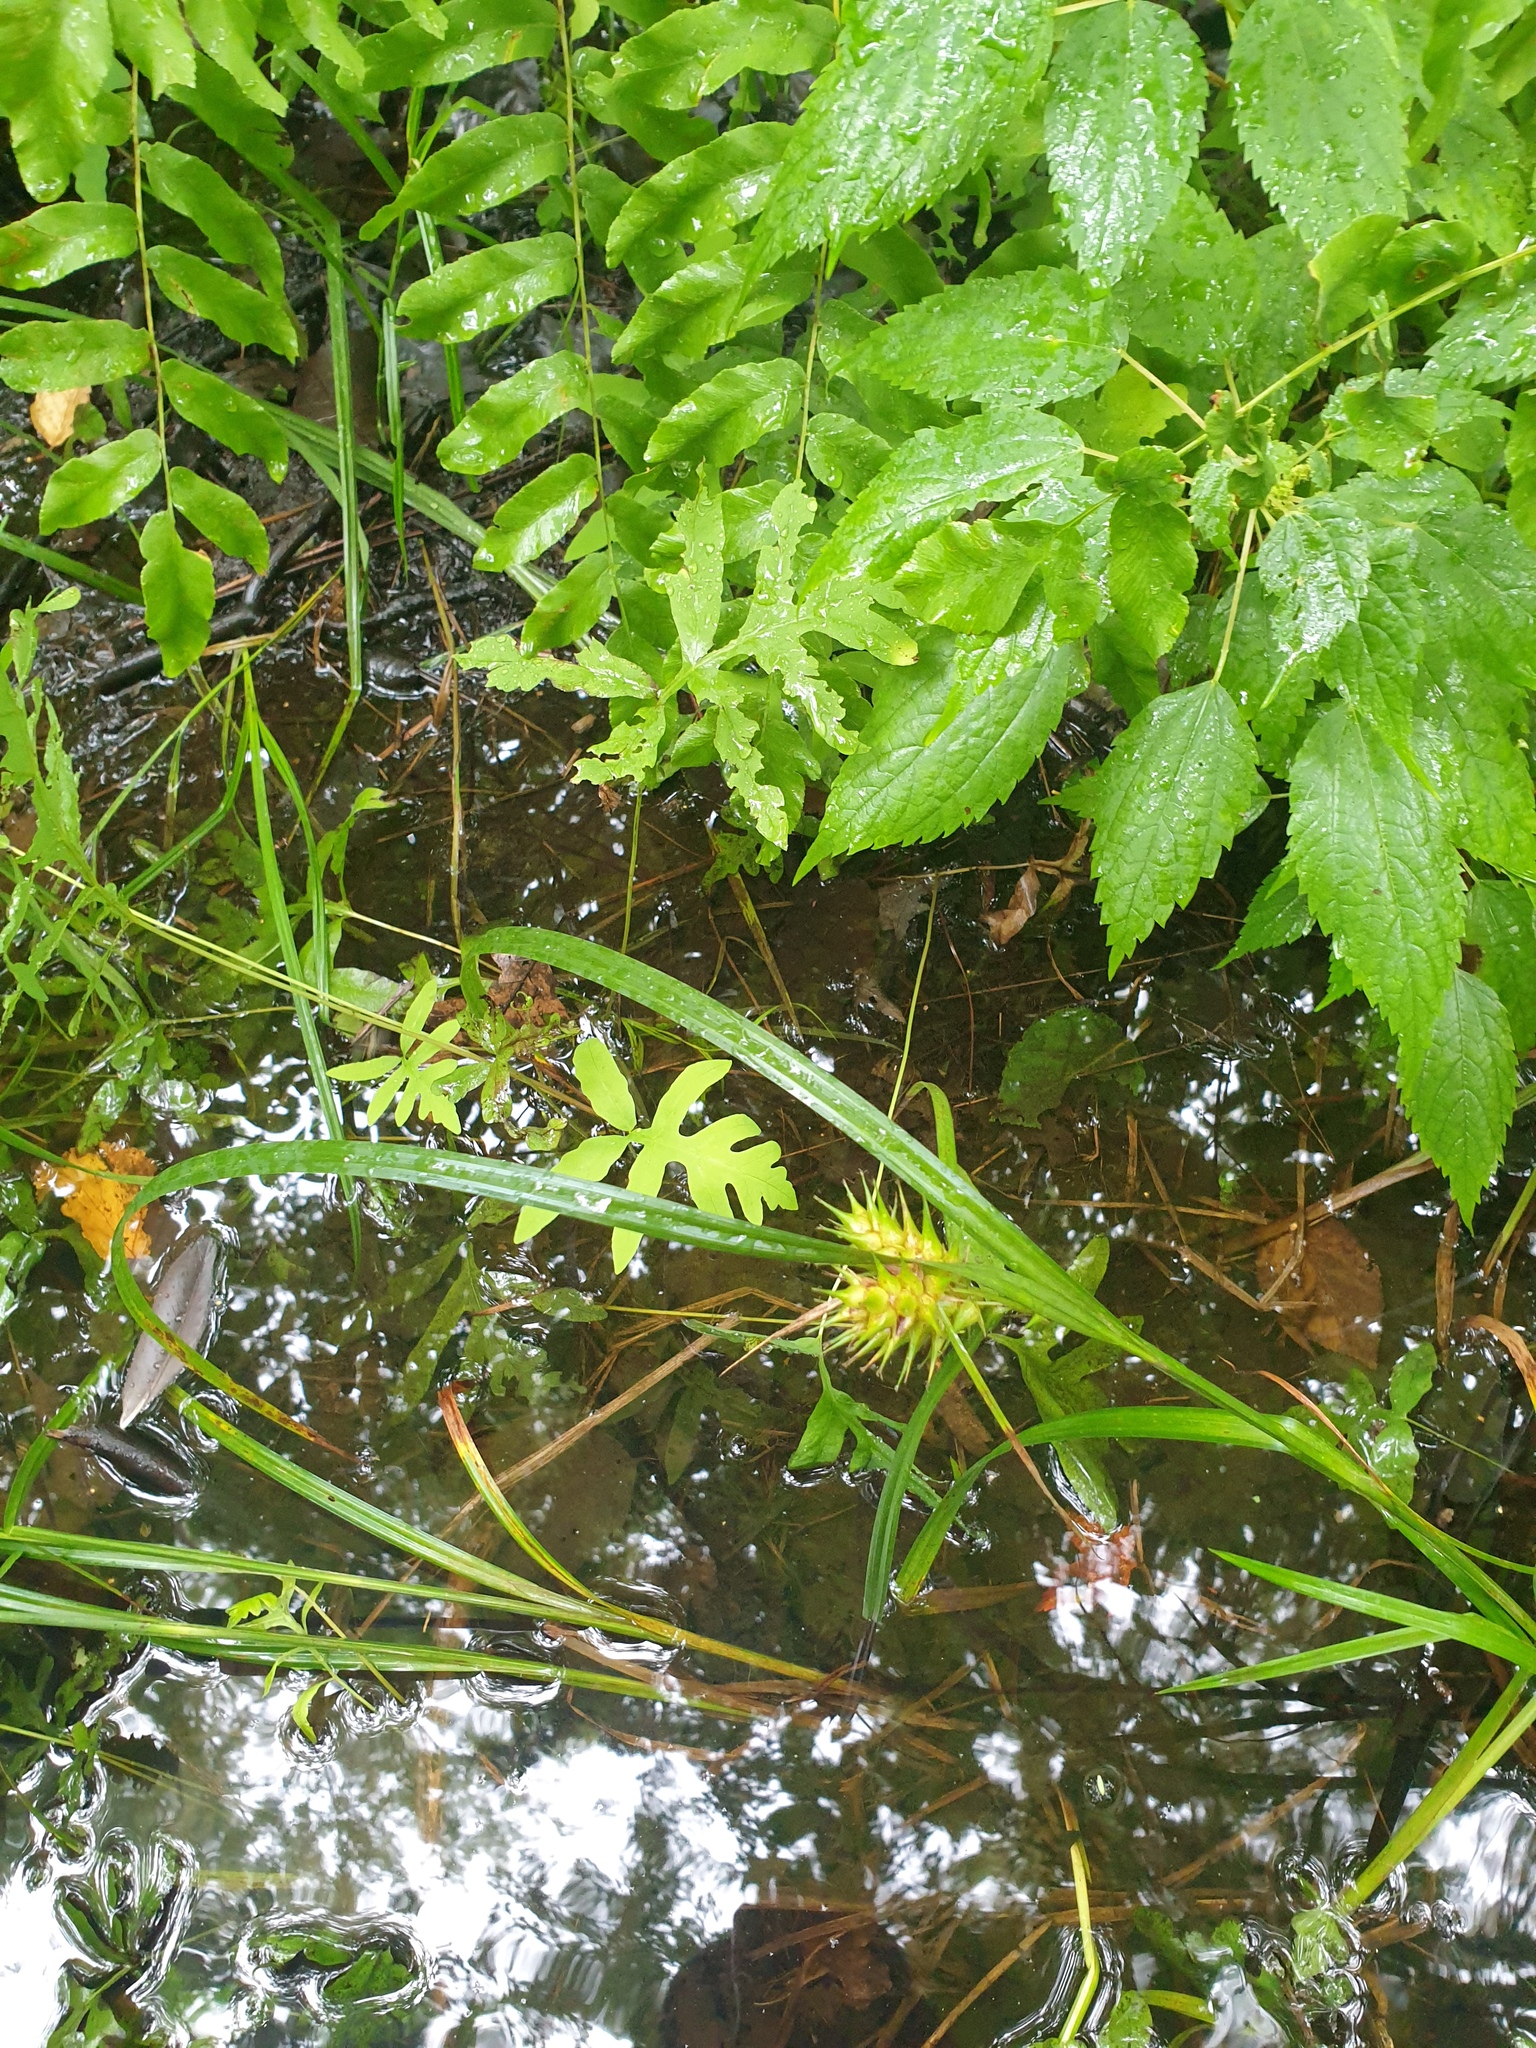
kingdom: Plantae
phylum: Tracheophyta
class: Liliopsida
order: Poales
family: Cyperaceae
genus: Carex
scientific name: Carex lupulina
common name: Hop sedge
